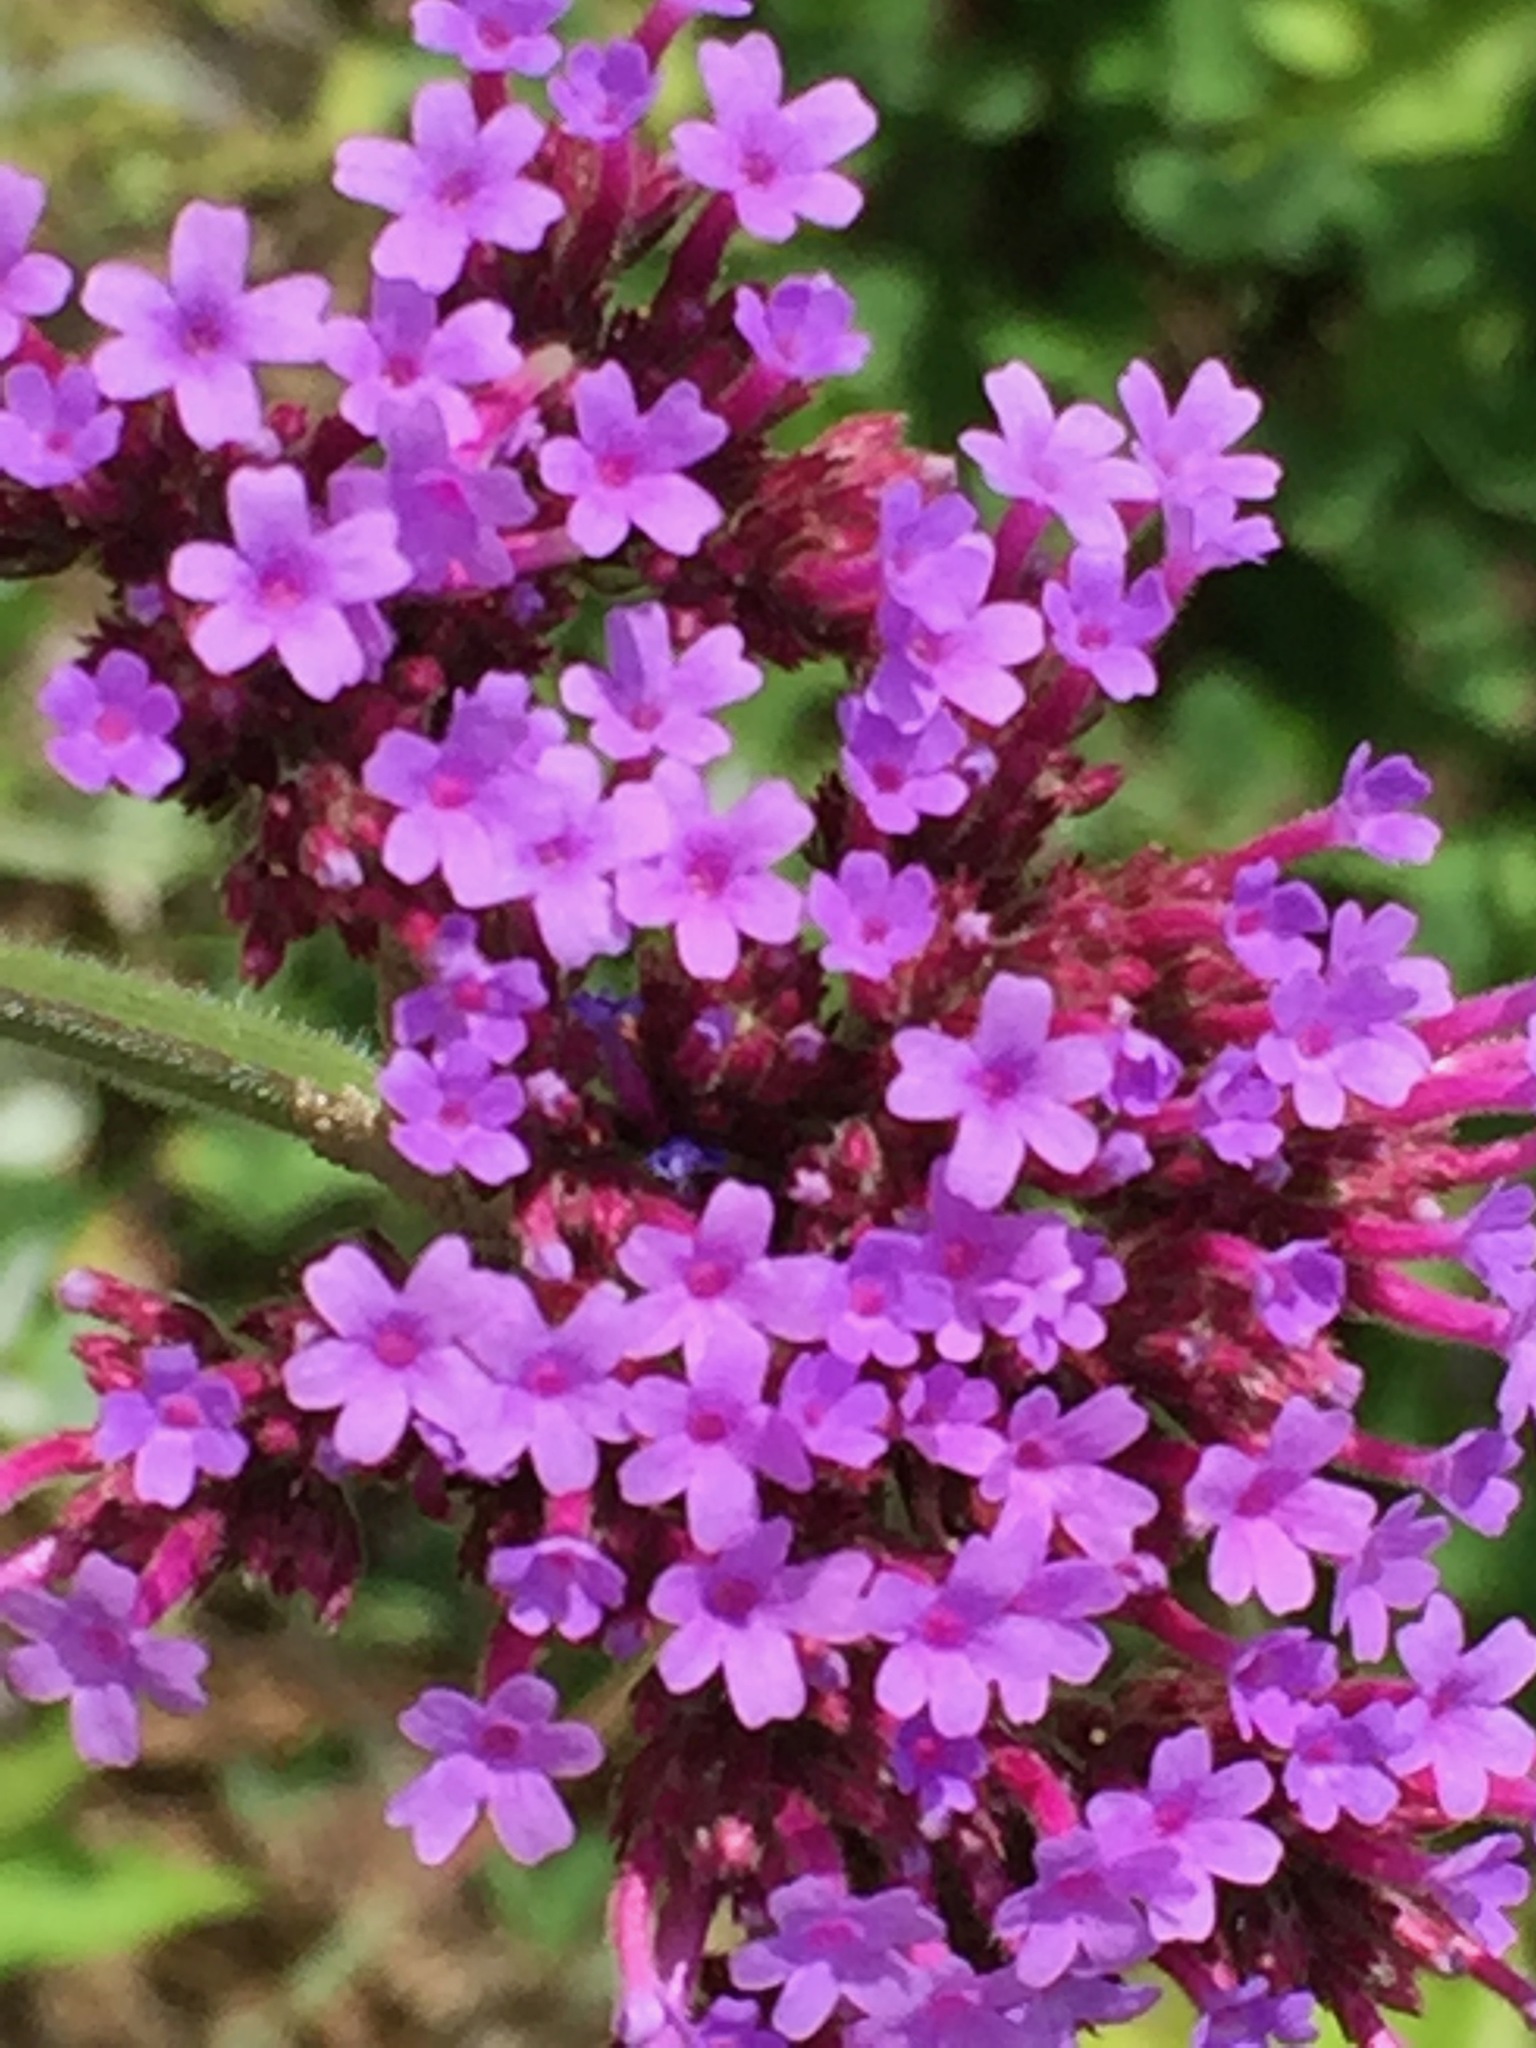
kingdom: Plantae
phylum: Tracheophyta
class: Magnoliopsida
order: Lamiales
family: Verbenaceae
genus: Verbena
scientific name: Verbena bonariensis
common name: Purpletop vervain
